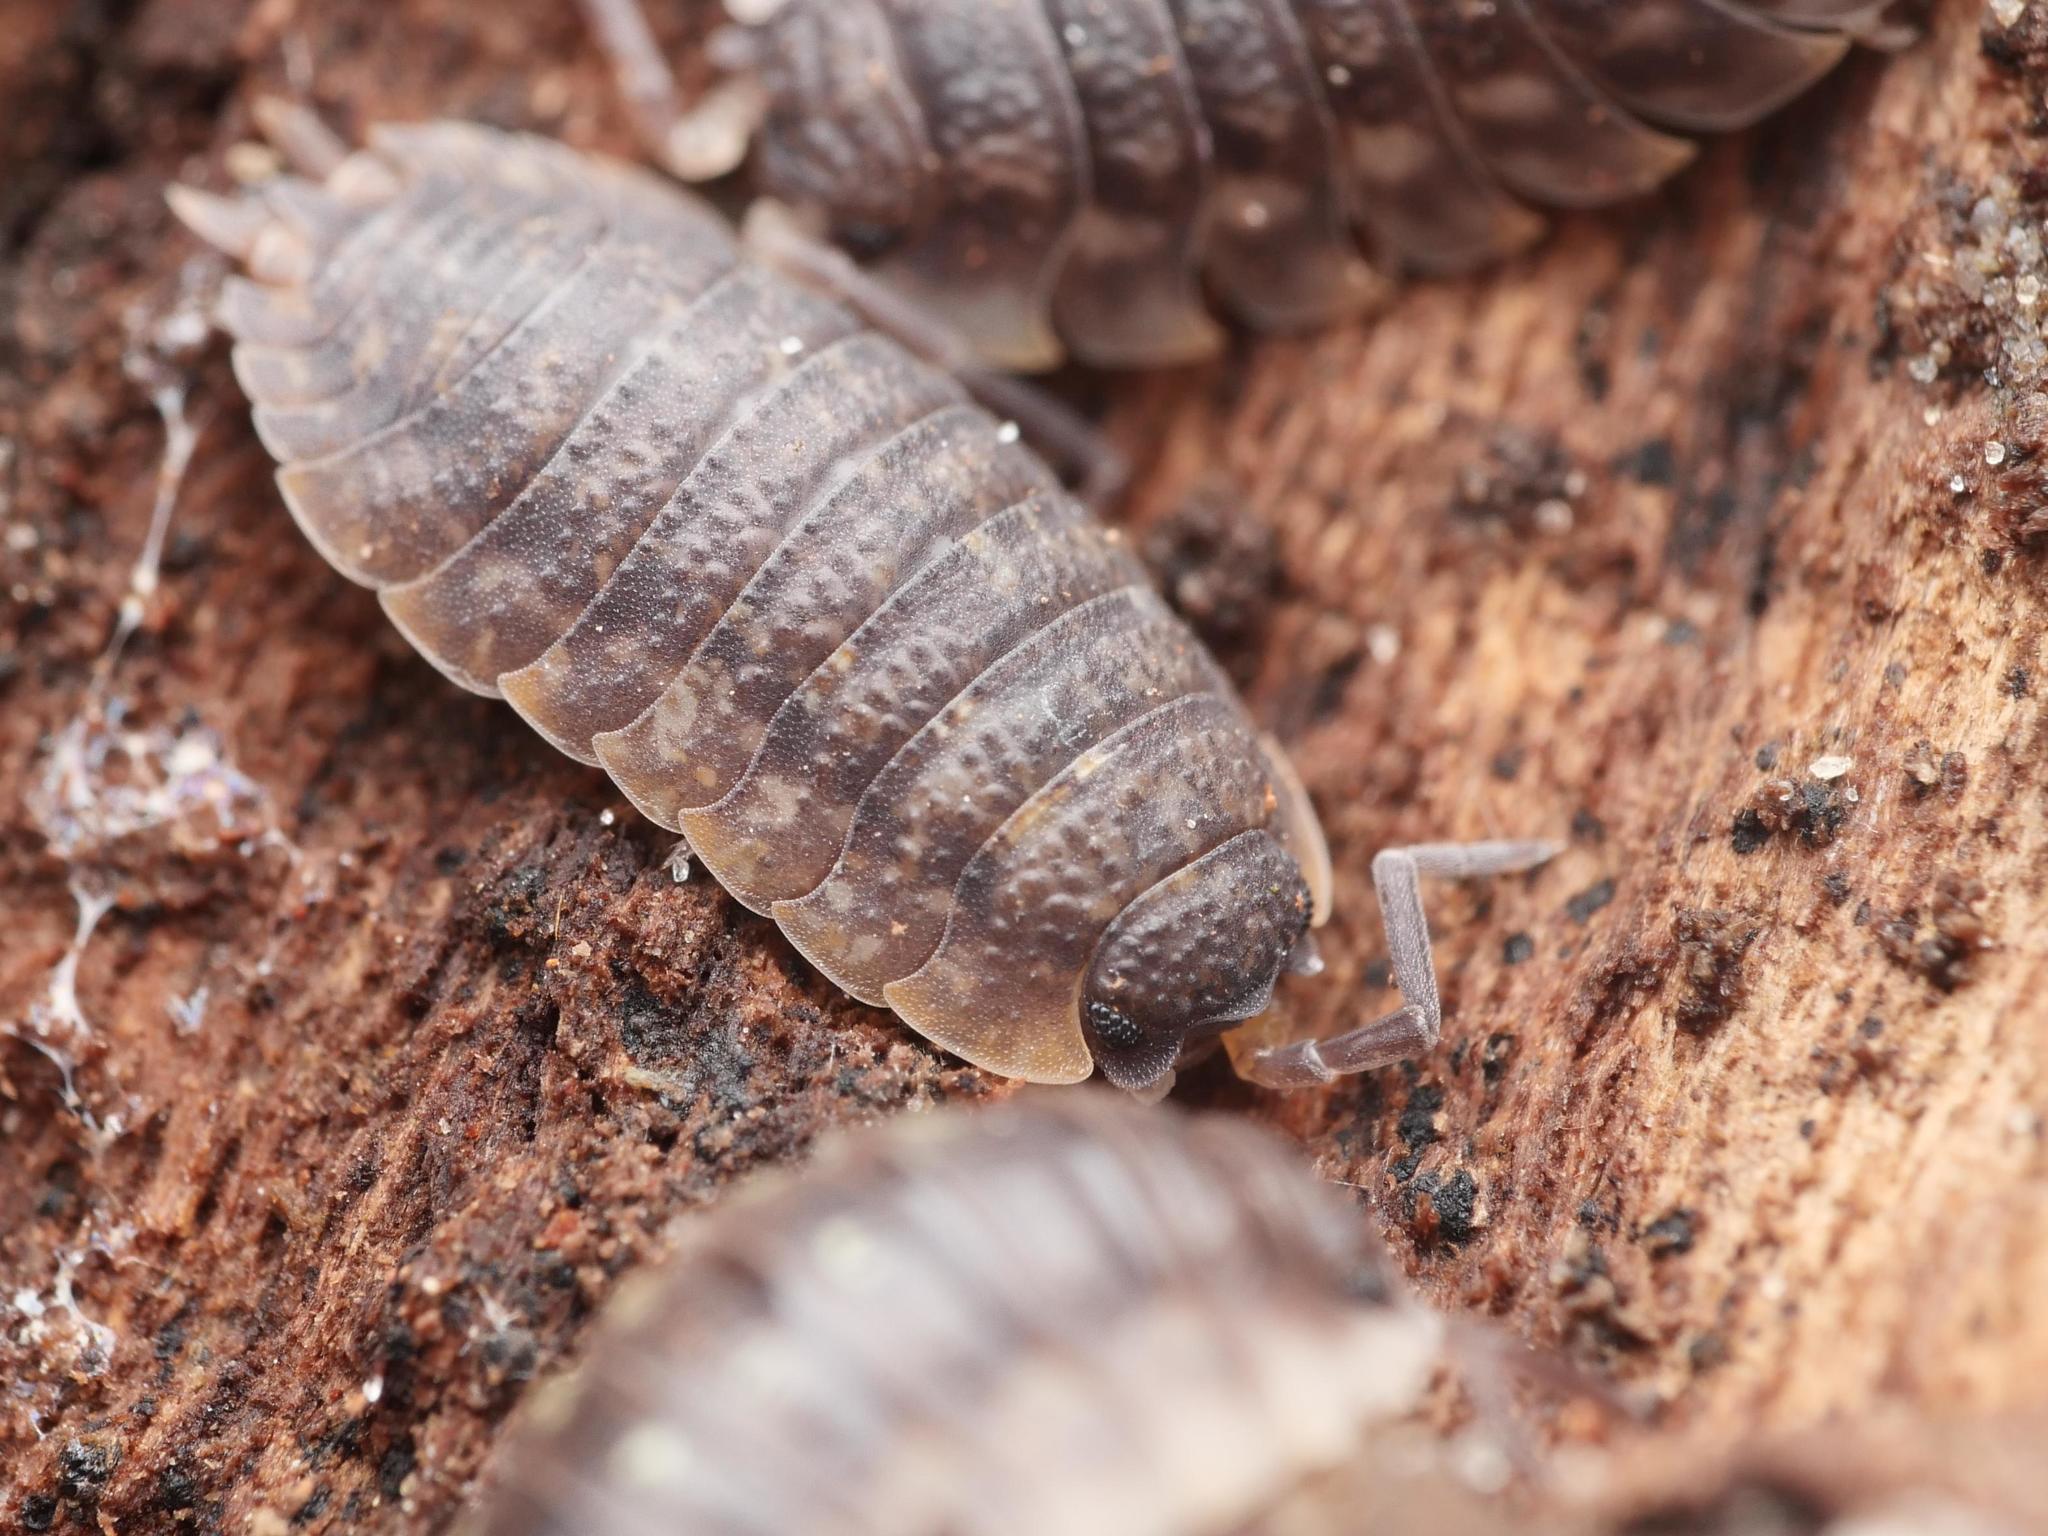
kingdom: Animalia
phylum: Arthropoda
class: Malacostraca
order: Isopoda
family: Porcellionidae
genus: Porcellio
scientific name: Porcellio scaber
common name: Common rough woodlouse
